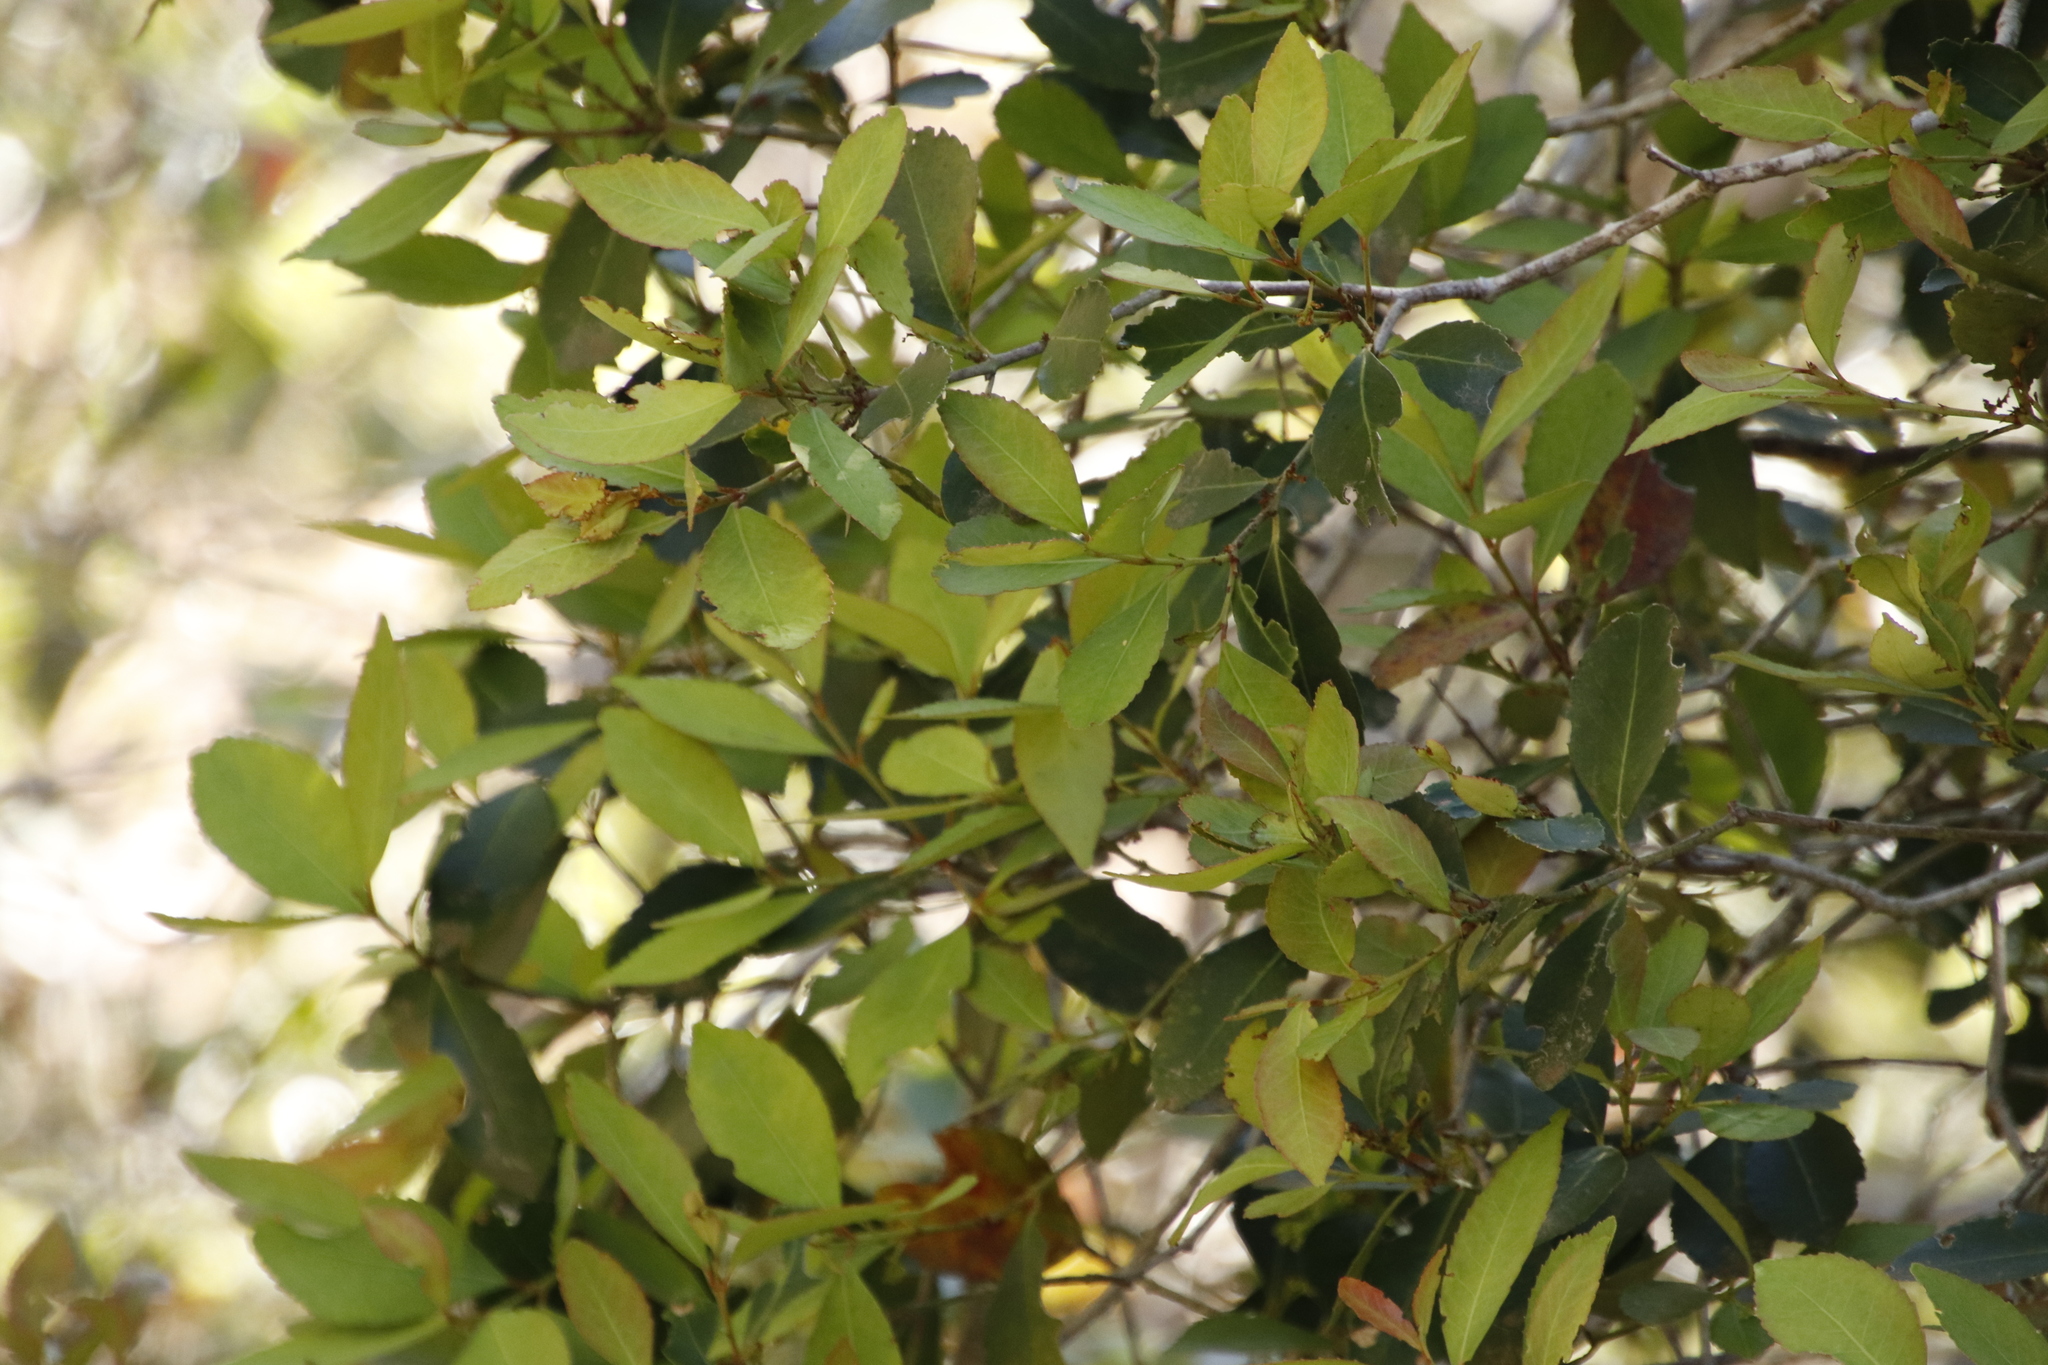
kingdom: Plantae
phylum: Tracheophyta
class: Magnoliopsida
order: Celastrales
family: Celastraceae
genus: Elaeodendron
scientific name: Elaeodendron schinoides
